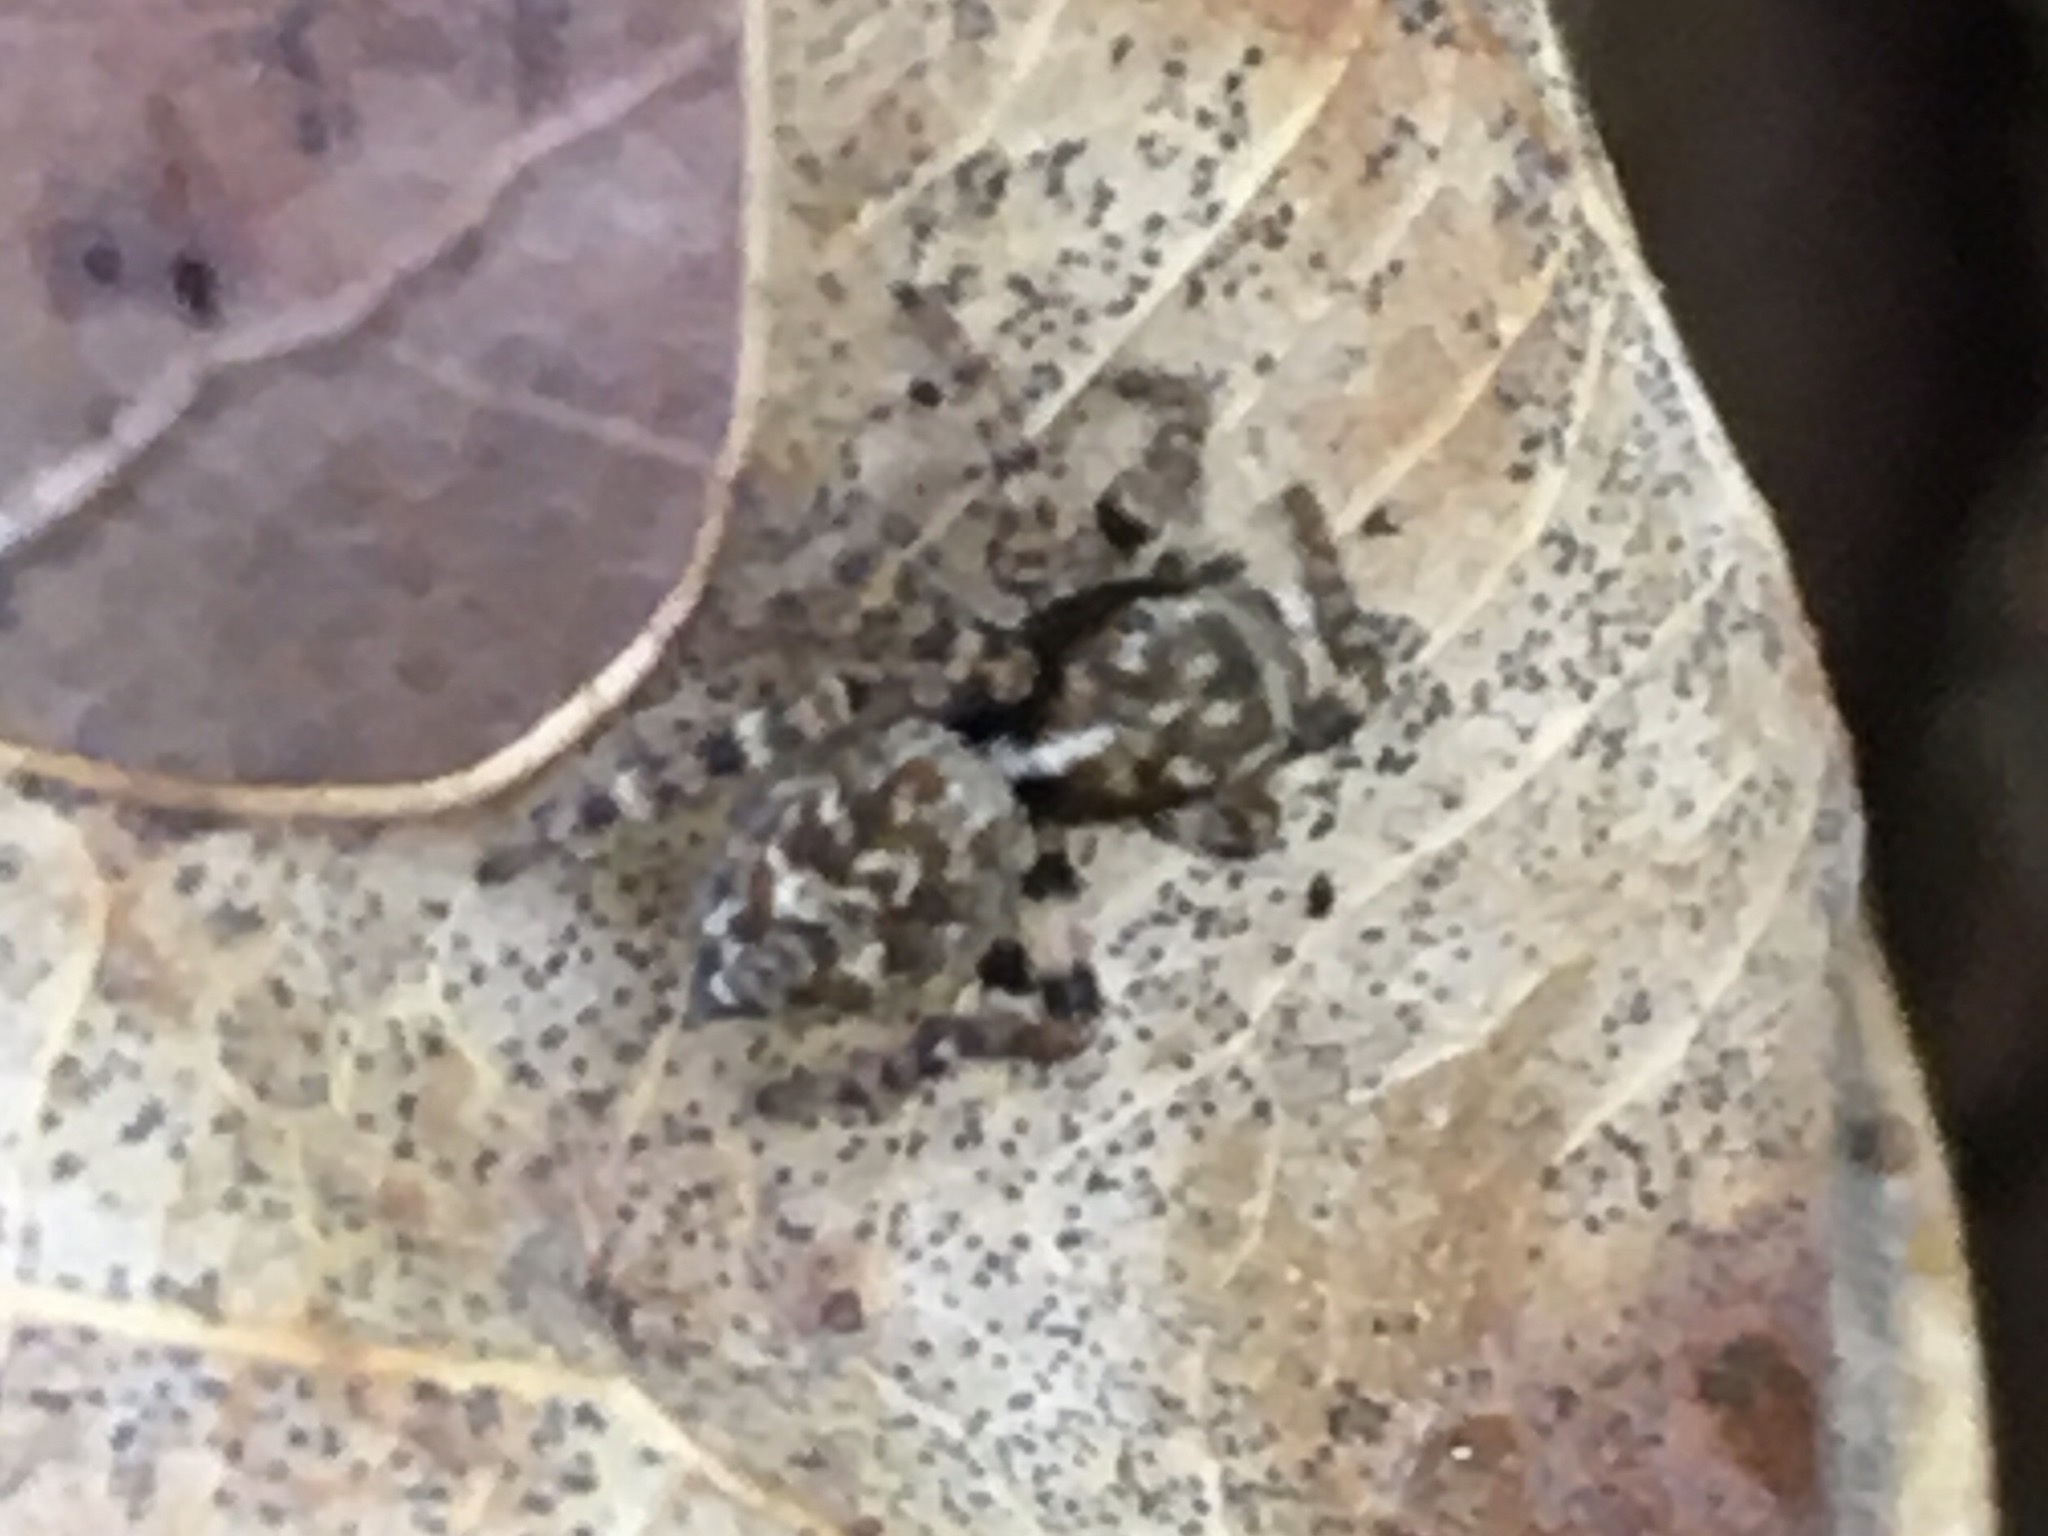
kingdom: Animalia
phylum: Arthropoda
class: Arachnida
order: Araneae
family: Salticidae
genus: Pseudeuophrys
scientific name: Pseudeuophrys
